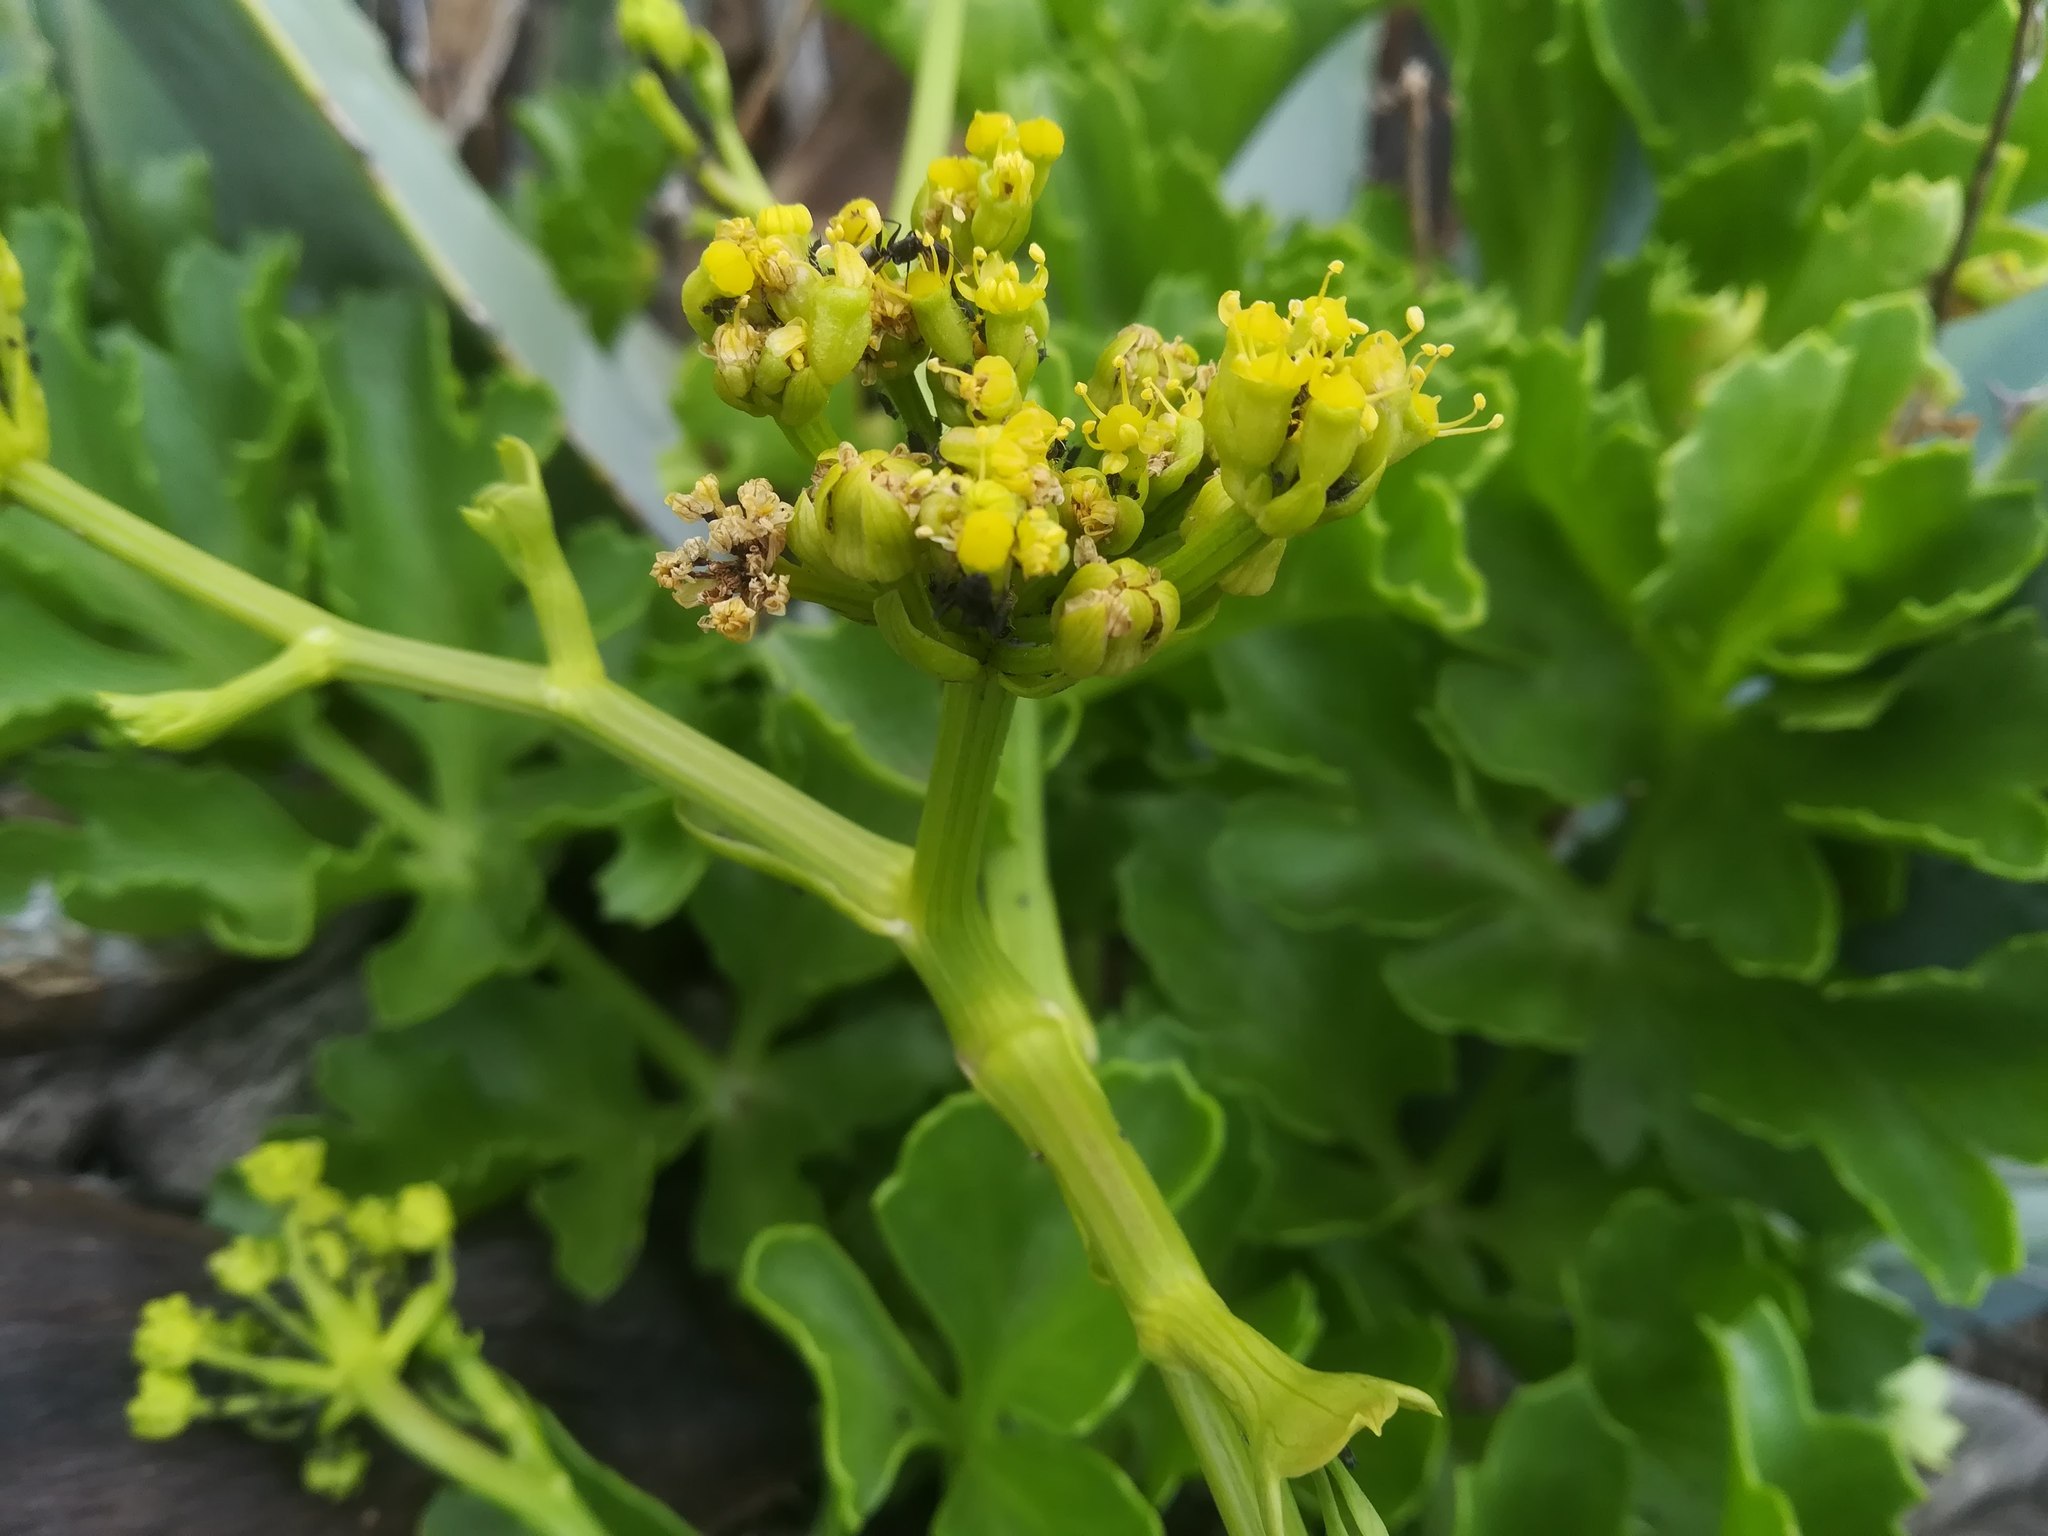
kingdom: Plantae
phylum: Tracheophyta
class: Magnoliopsida
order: Apiales
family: Apiaceae
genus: Astydamia
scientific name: Astydamia latifolia
